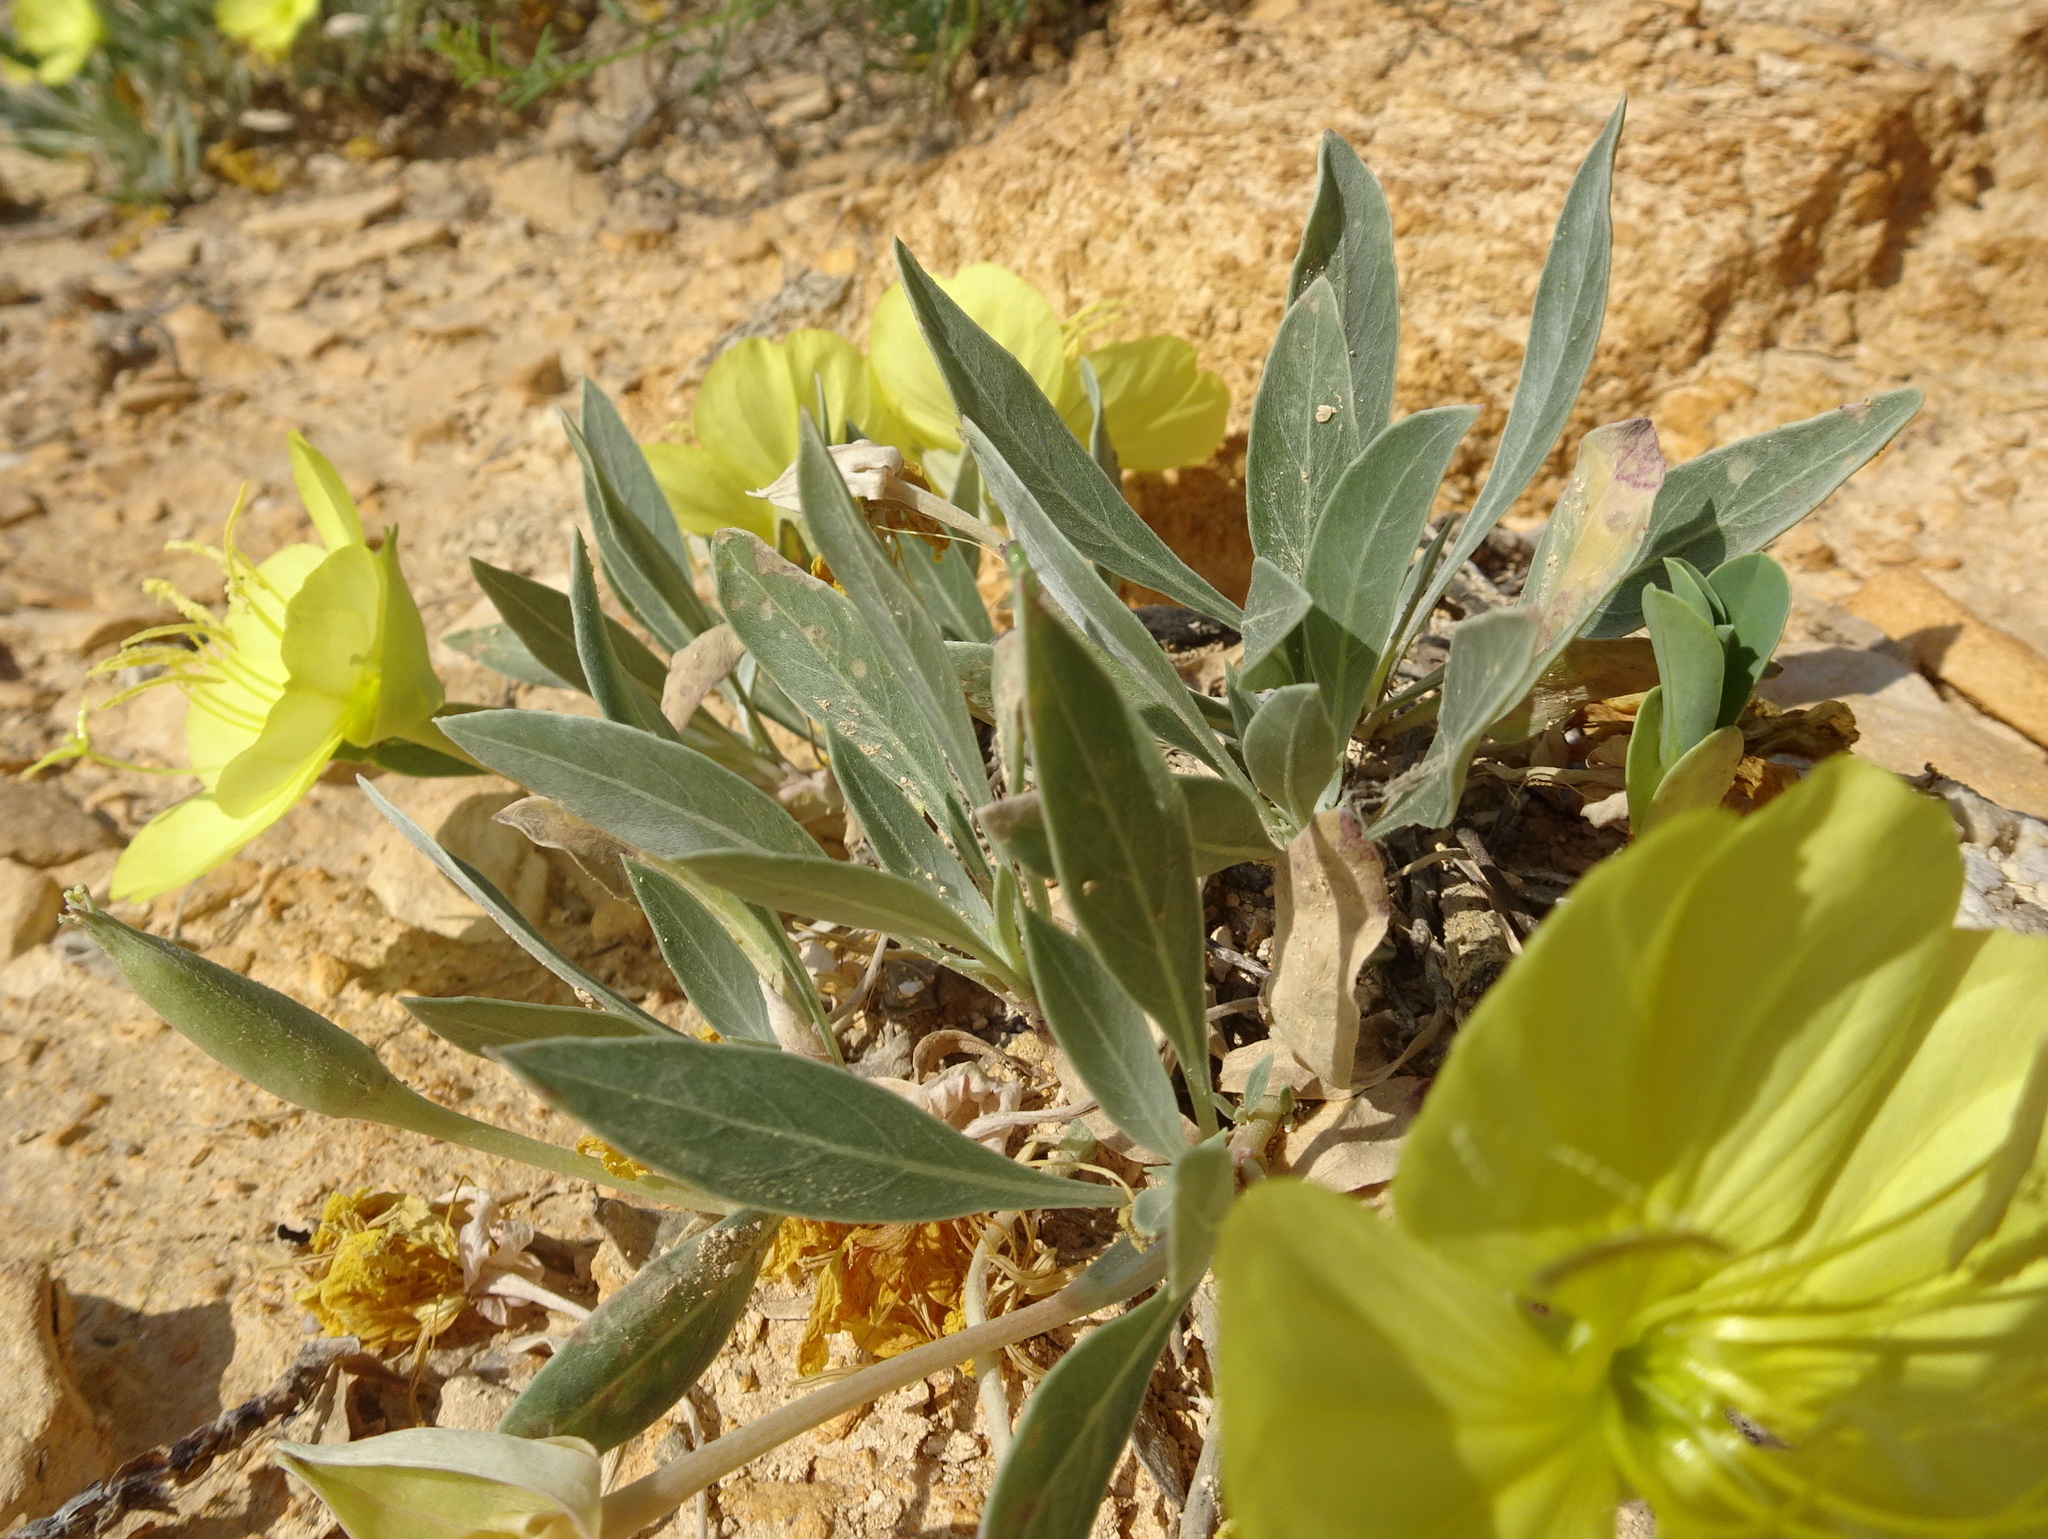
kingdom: Plantae
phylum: Tracheophyta
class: Magnoliopsida
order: Myrtales
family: Onagraceae
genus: Oenothera
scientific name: Oenothera macrocarpa
